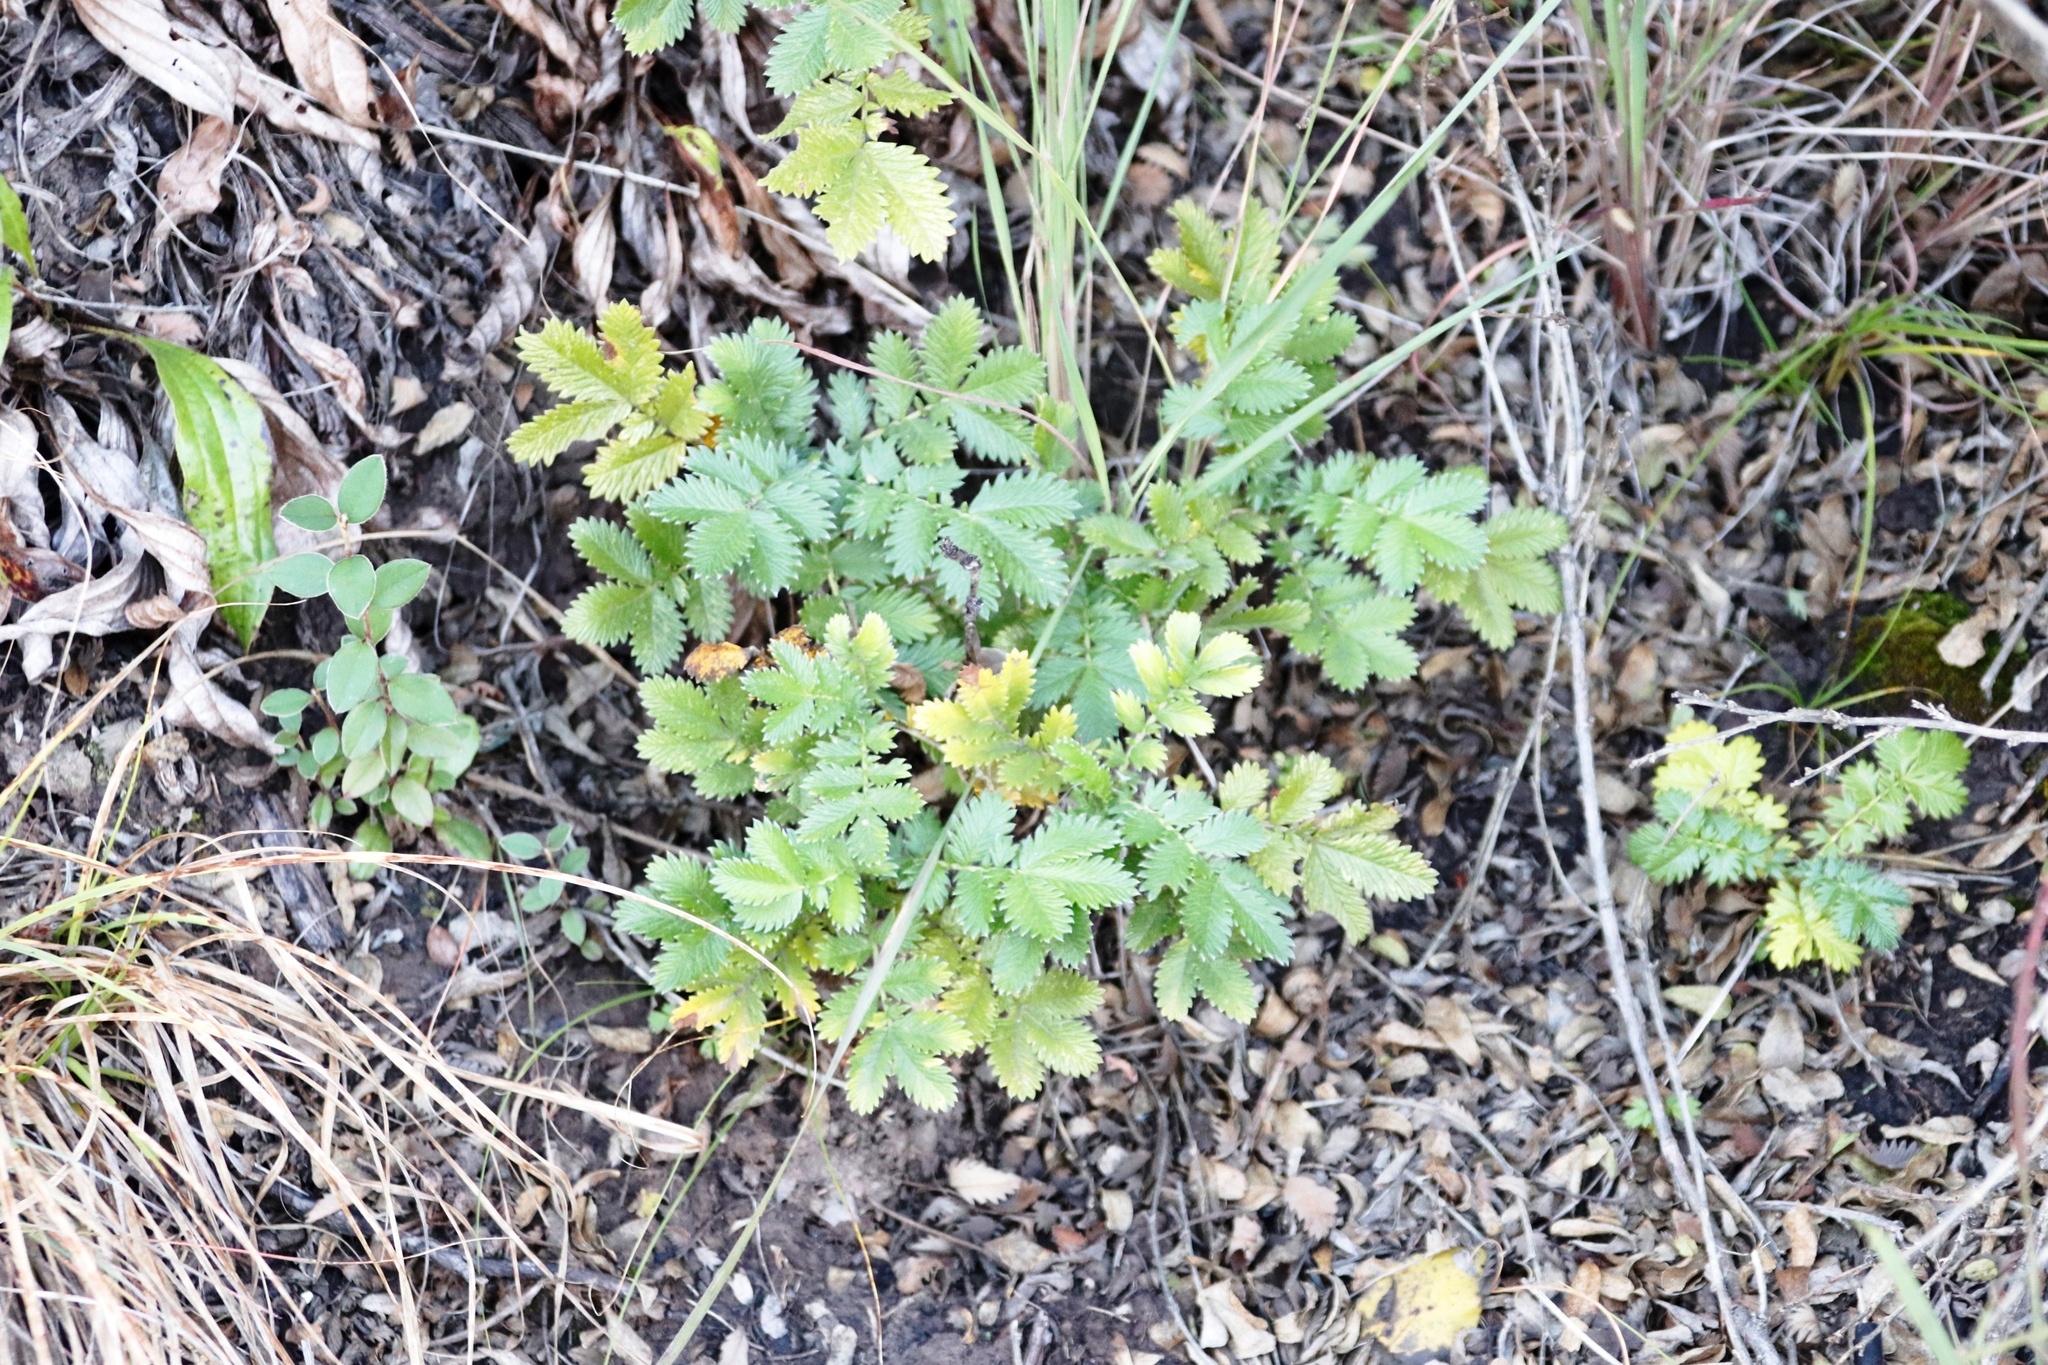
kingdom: Plantae
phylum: Tracheophyta
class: Magnoliopsida
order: Rosales
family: Rosaceae
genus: Leucosidea
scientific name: Leucosidea sericea
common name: Oldwood
